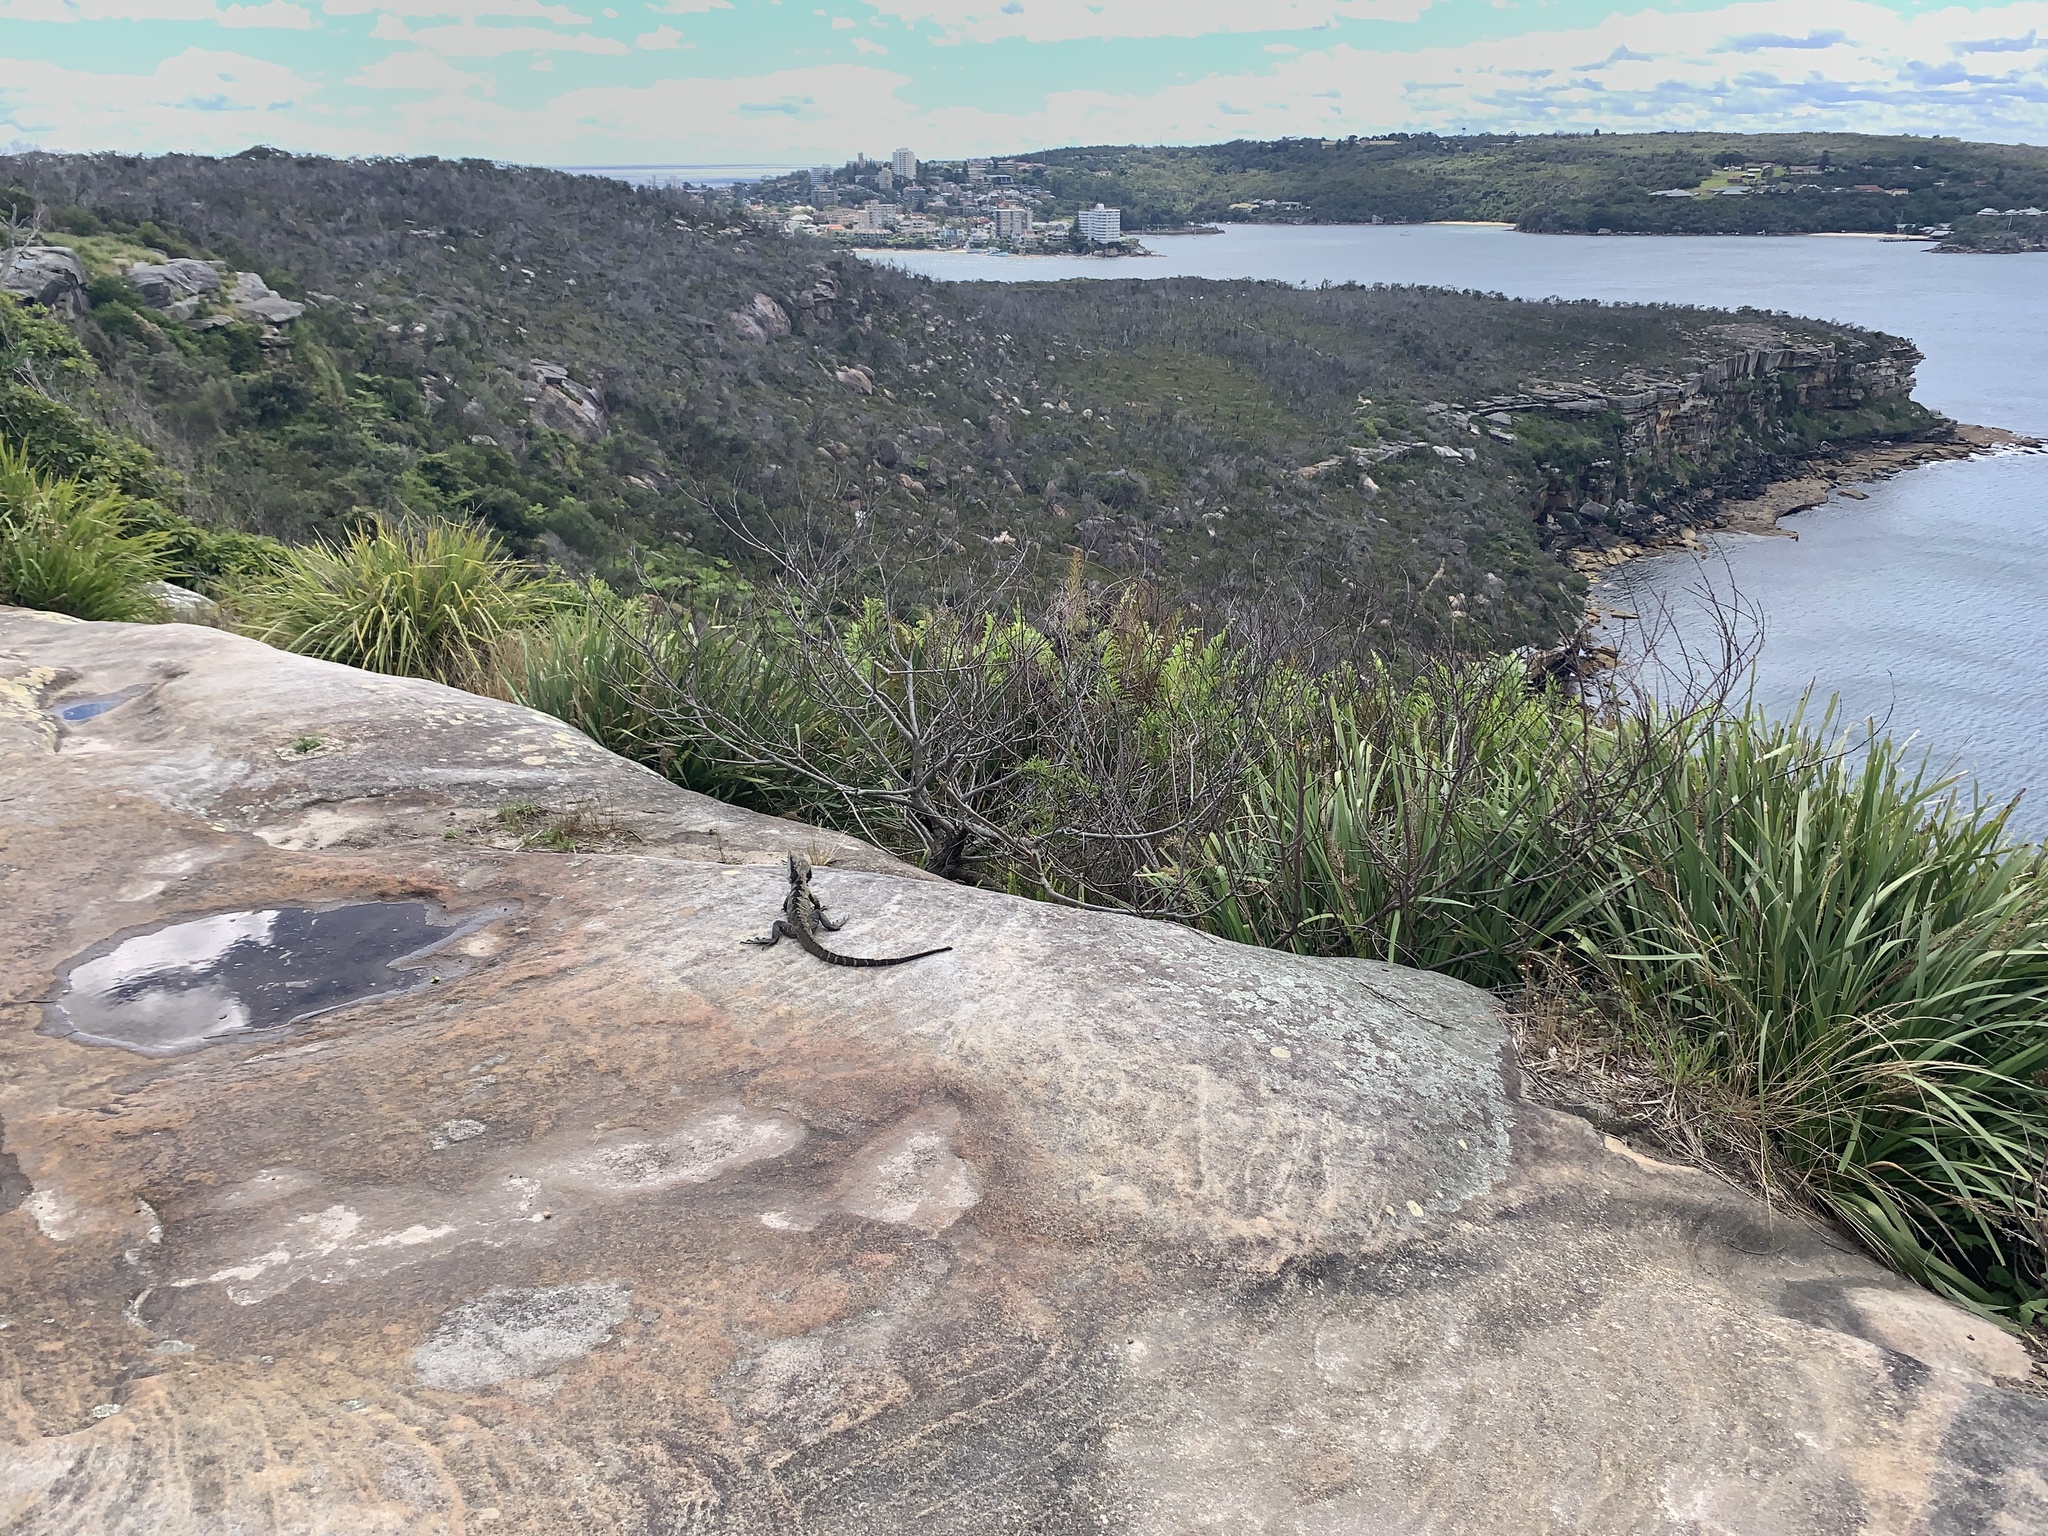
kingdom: Animalia
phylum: Chordata
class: Squamata
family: Agamidae
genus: Intellagama
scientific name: Intellagama lesueurii
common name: Eastern water dragon
